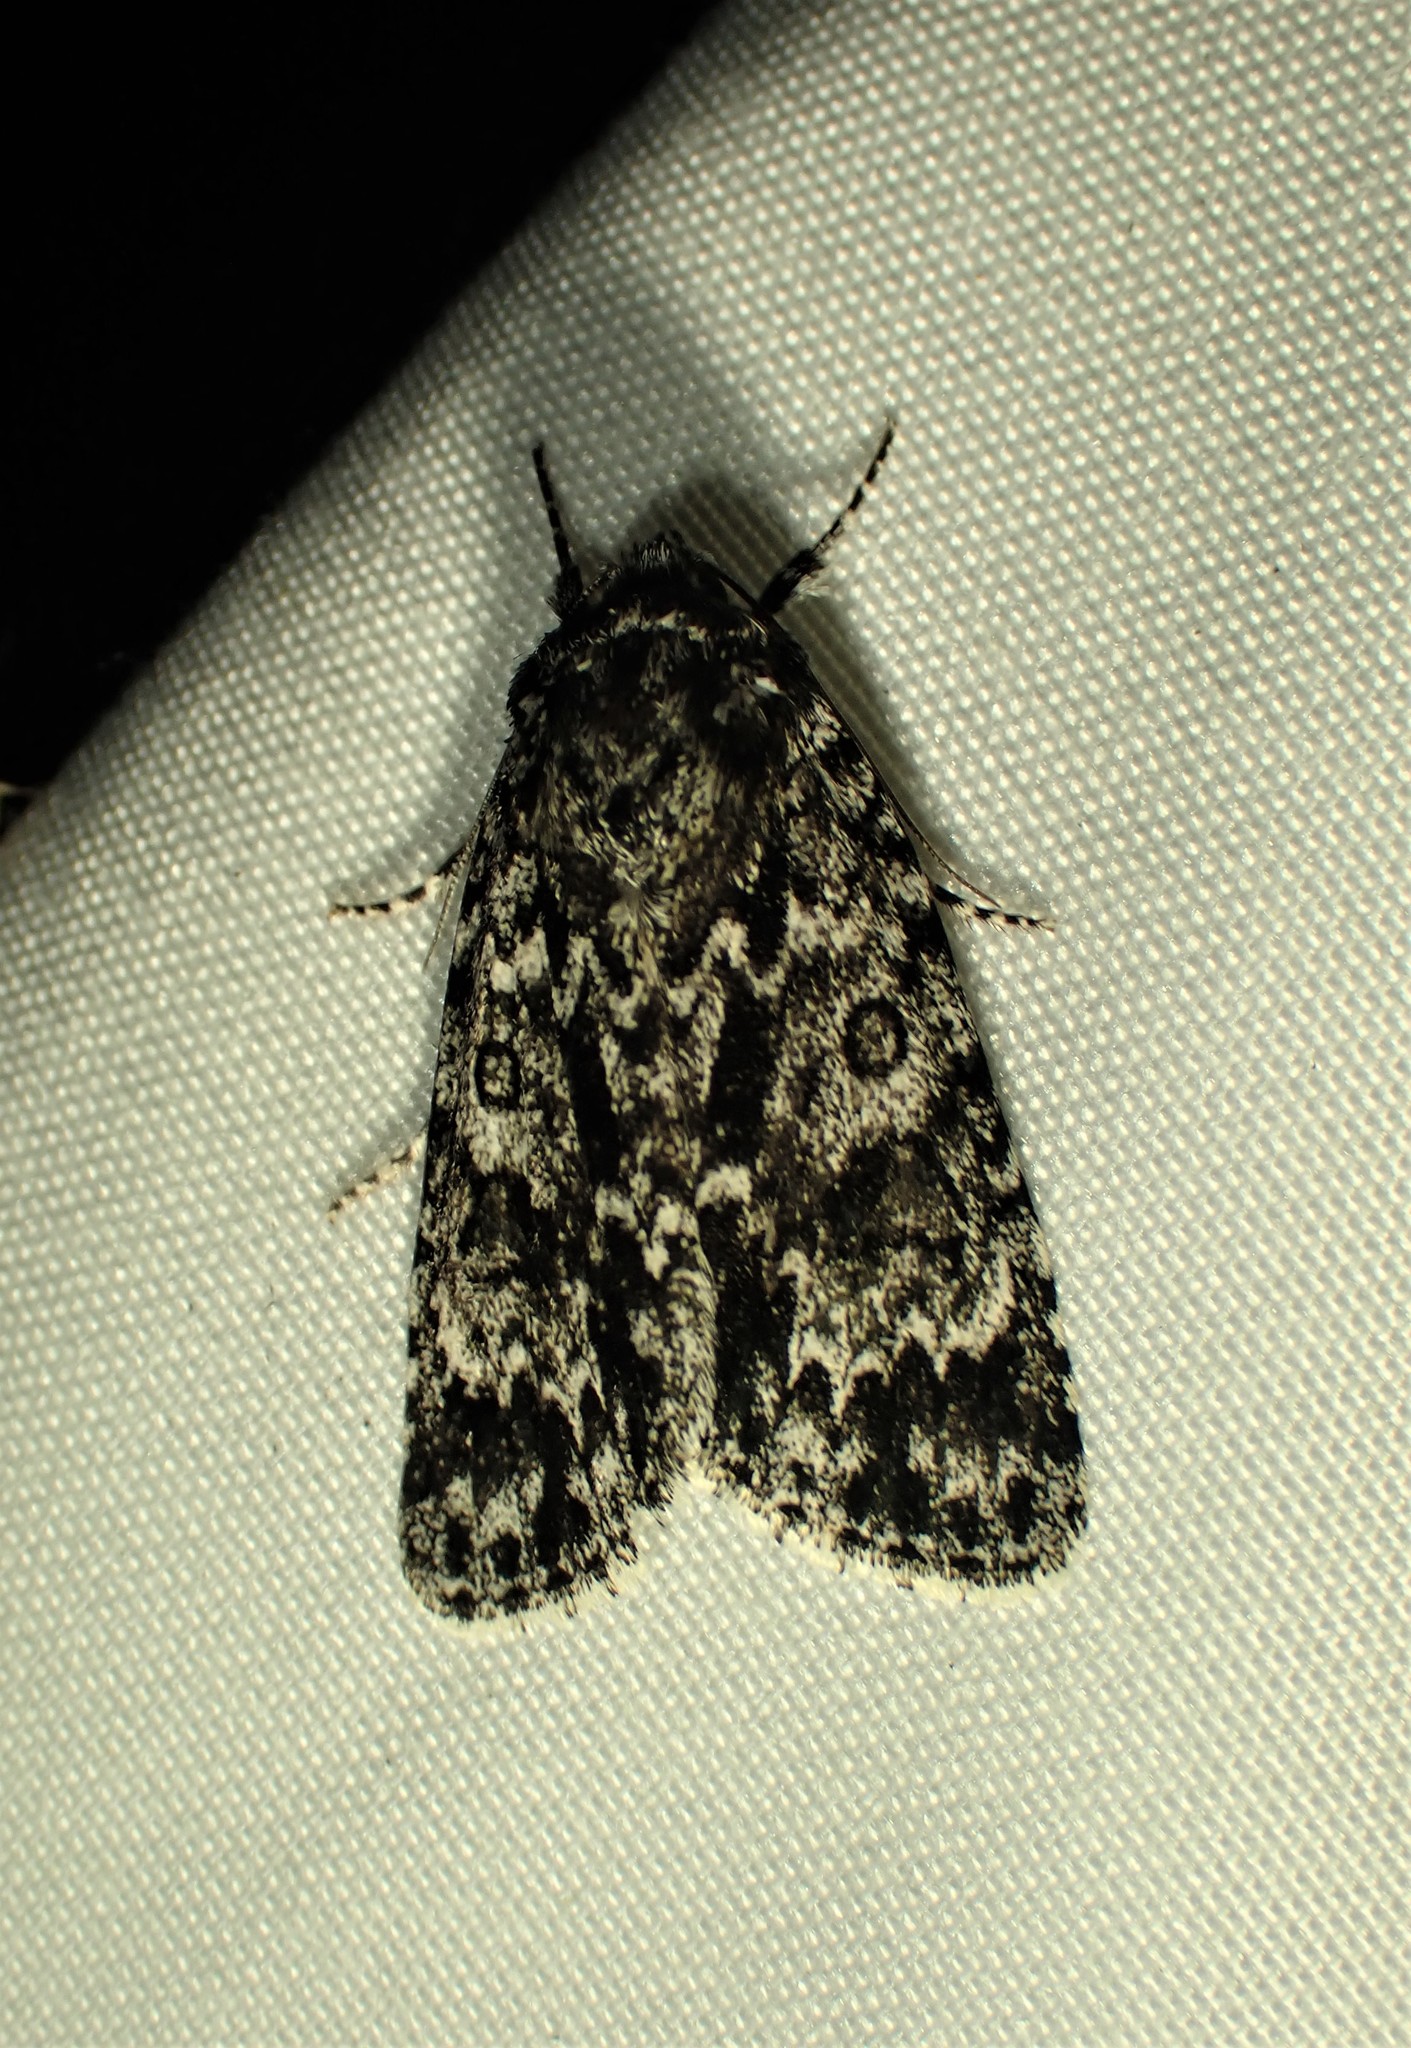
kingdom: Animalia
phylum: Arthropoda
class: Insecta
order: Lepidoptera
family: Noctuidae
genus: Acronicta
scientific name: Acronicta noctivaga
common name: Night-wandering dagger
